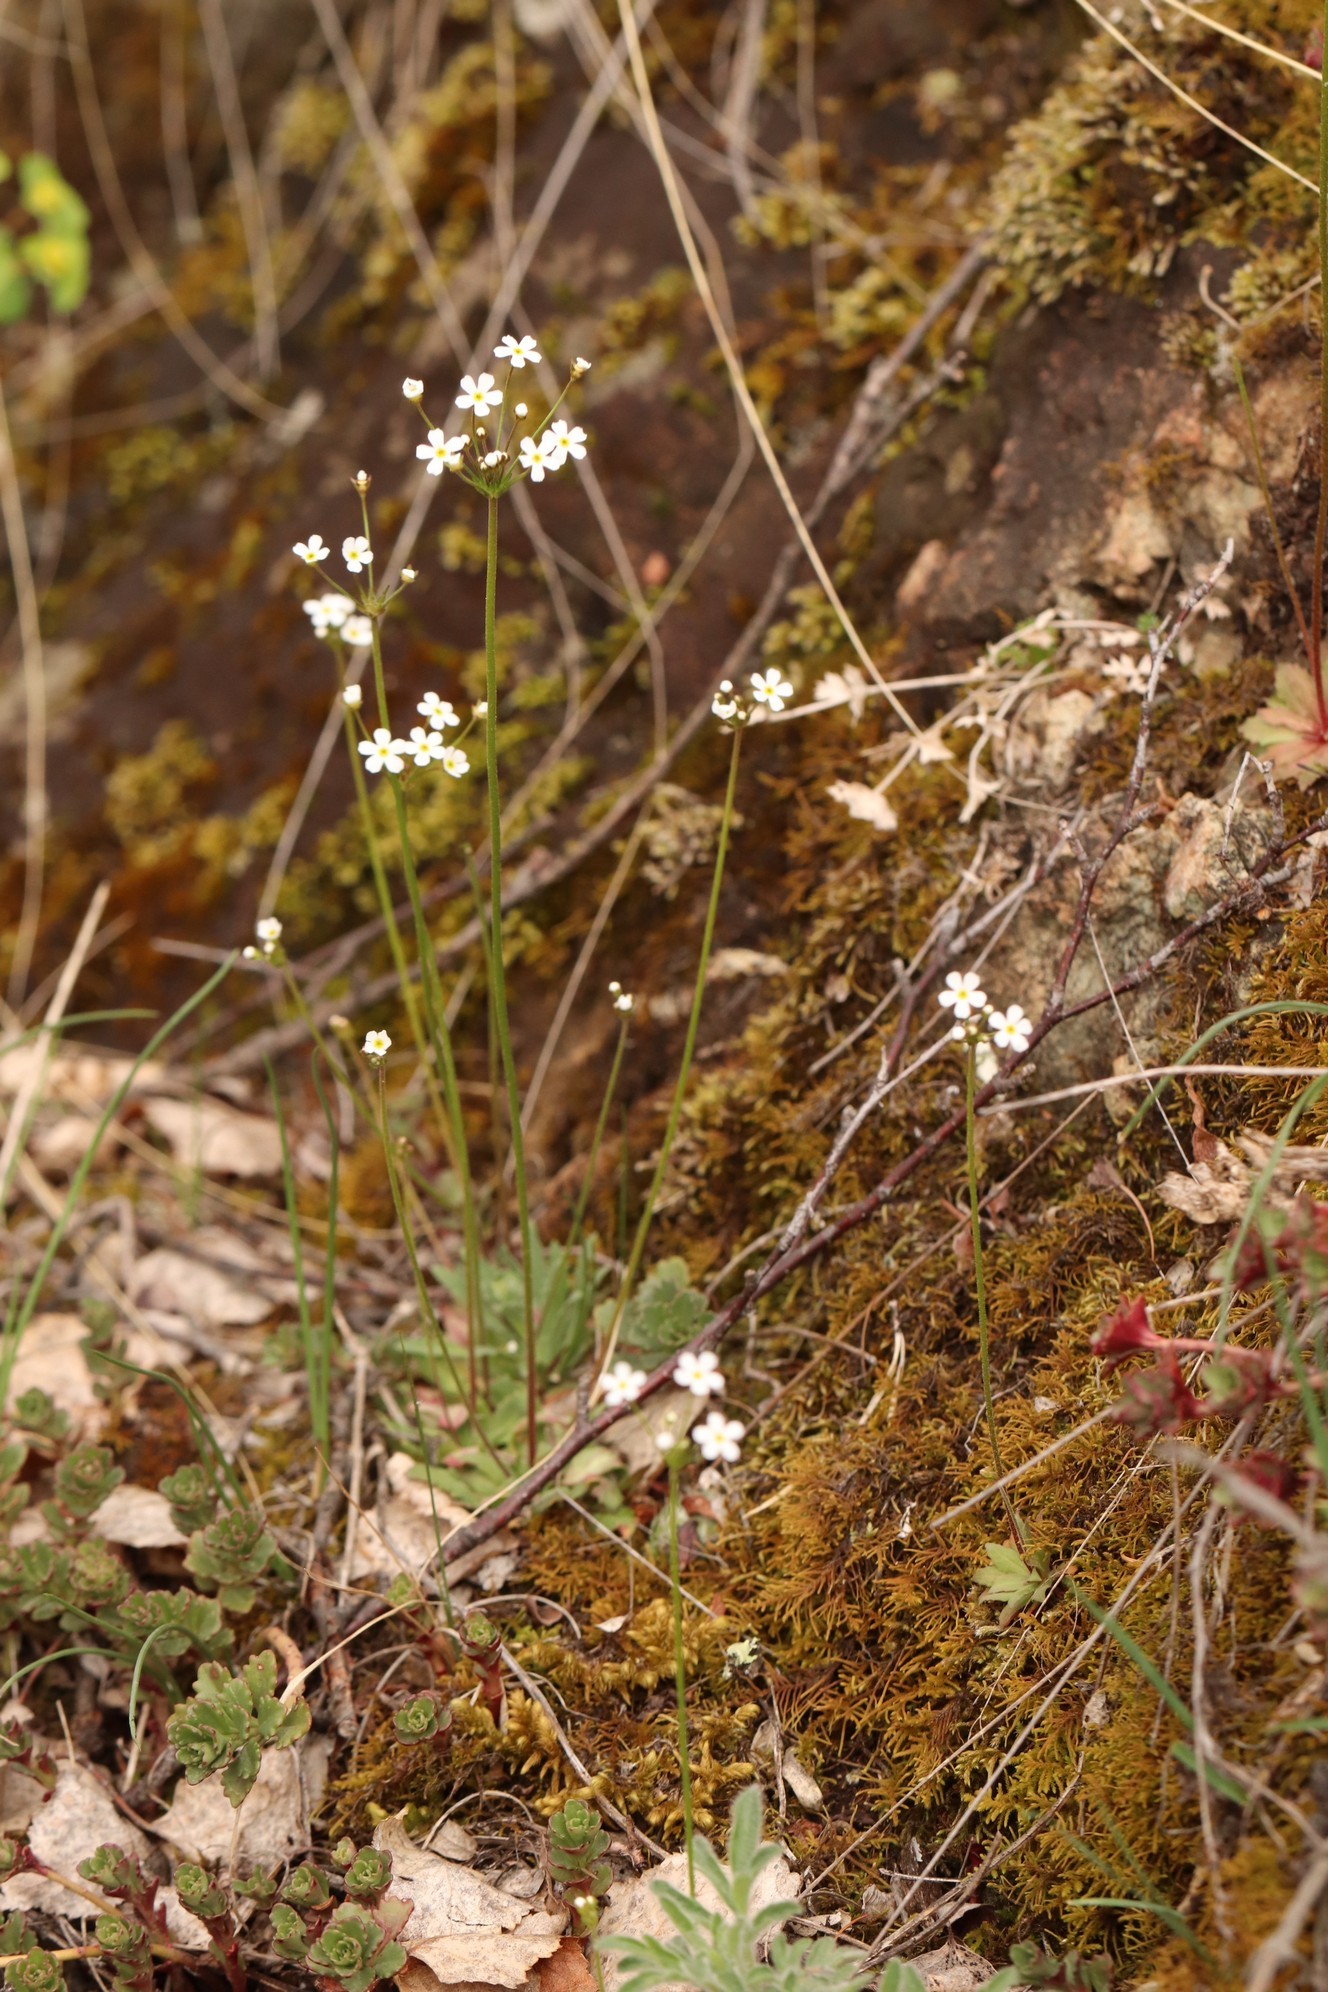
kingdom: Plantae
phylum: Tracheophyta
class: Magnoliopsida
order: Ericales
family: Primulaceae
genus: Androsace
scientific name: Androsace septentrionalis
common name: Hairy northern fairy-candelabra
